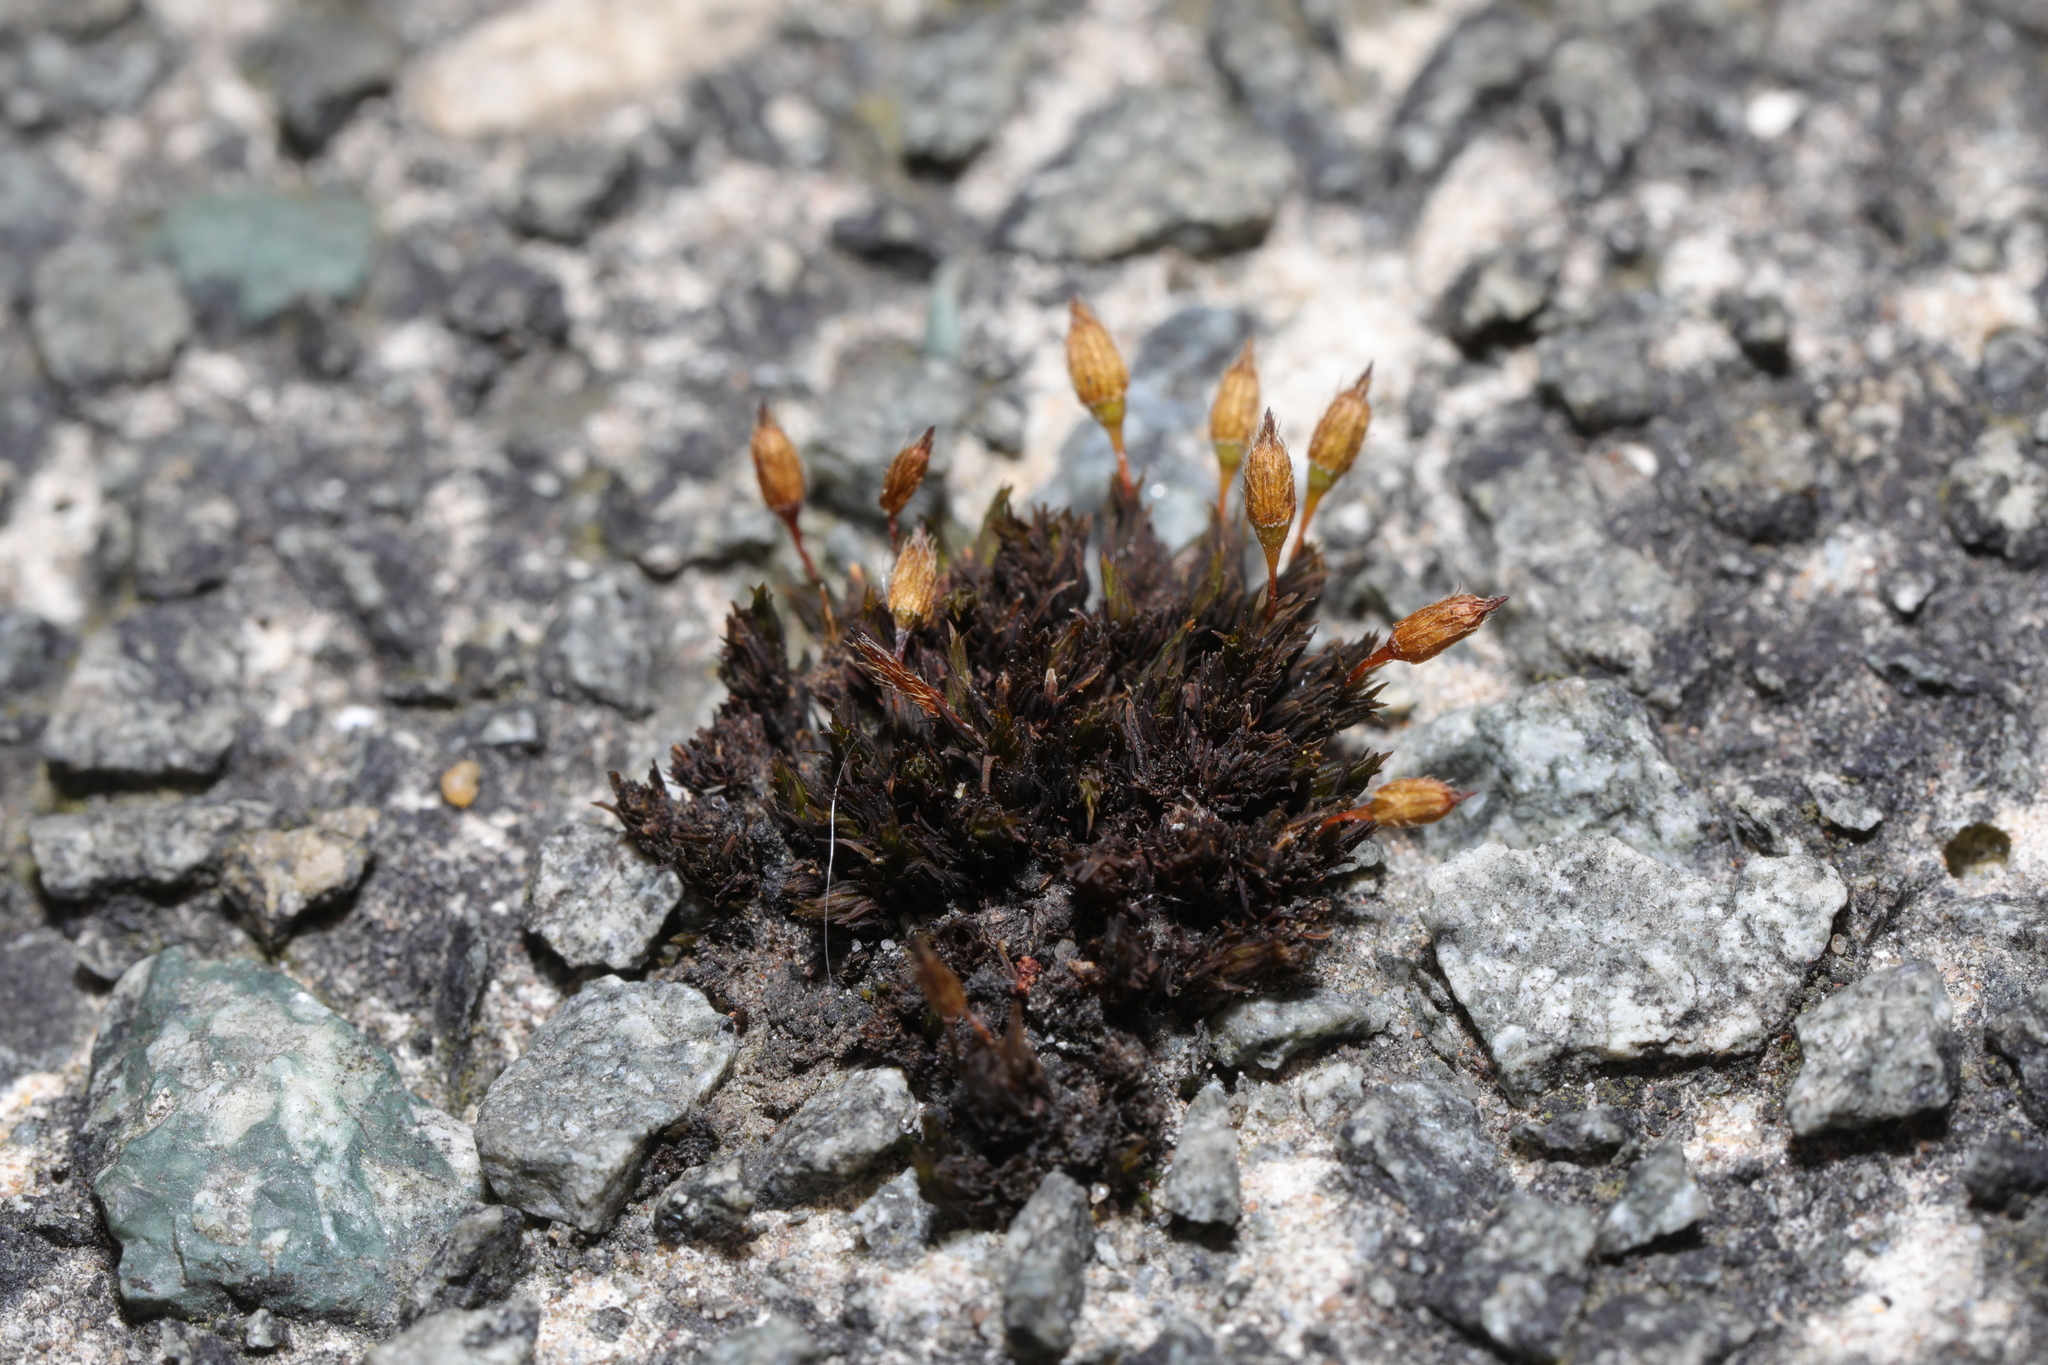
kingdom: Plantae
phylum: Bryophyta
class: Bryopsida
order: Orthotrichales
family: Orthotrichaceae
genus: Orthotrichum
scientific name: Orthotrichum anomalum
